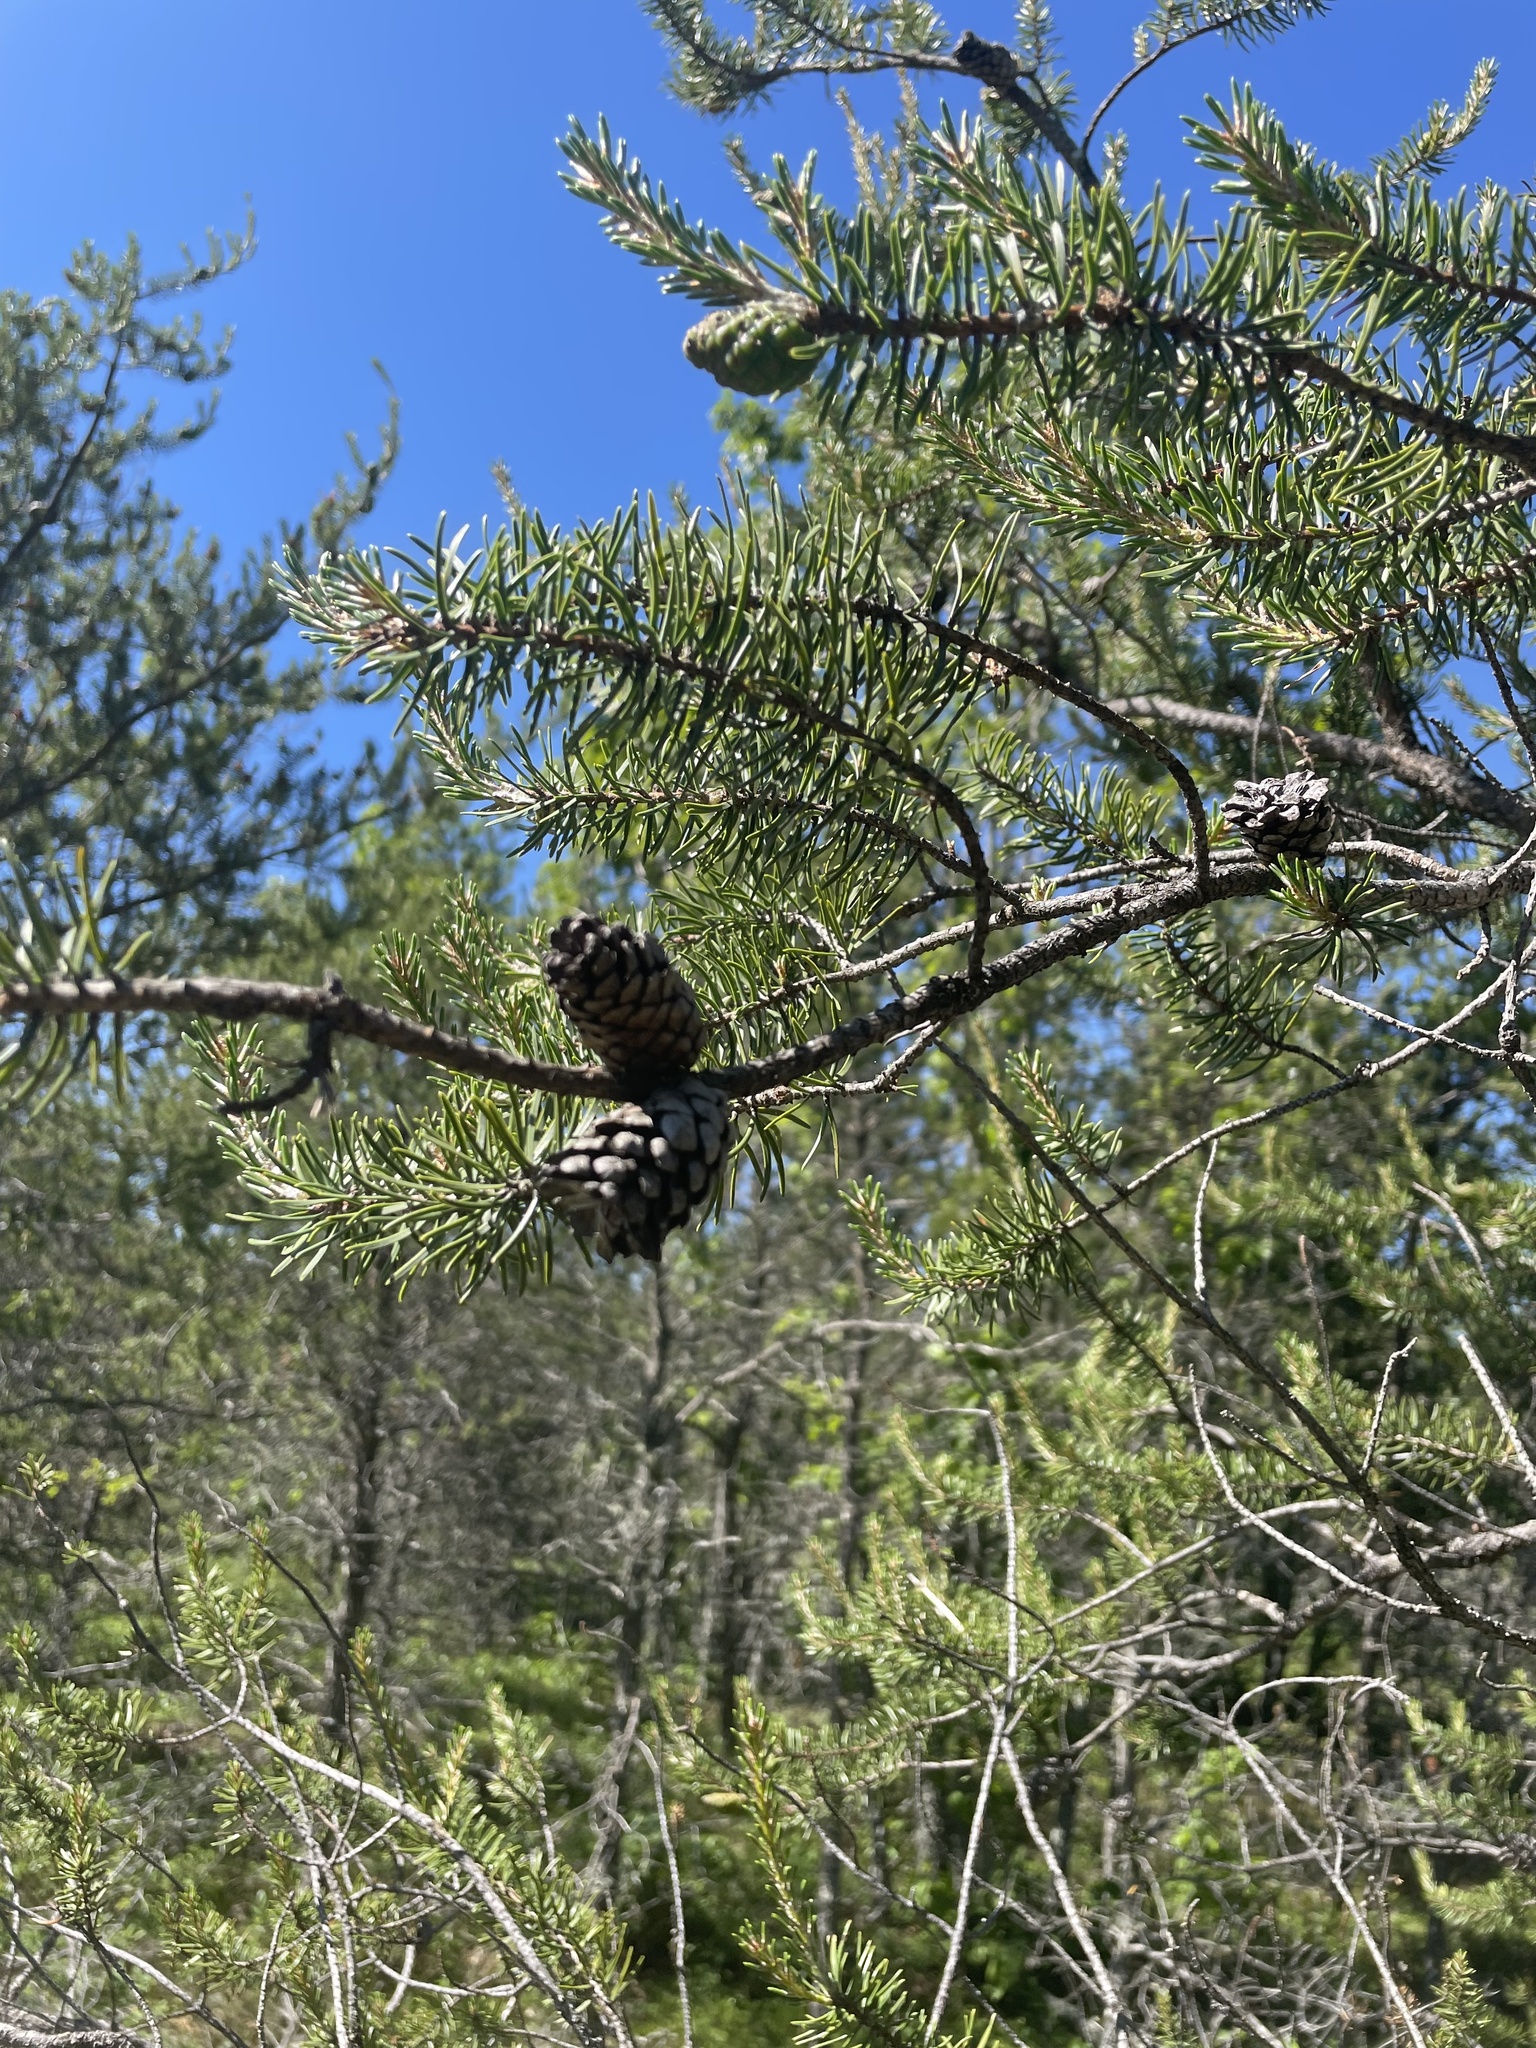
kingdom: Plantae
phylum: Tracheophyta
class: Pinopsida
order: Pinales
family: Pinaceae
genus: Pinus
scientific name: Pinus banksiana
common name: Jack pine
